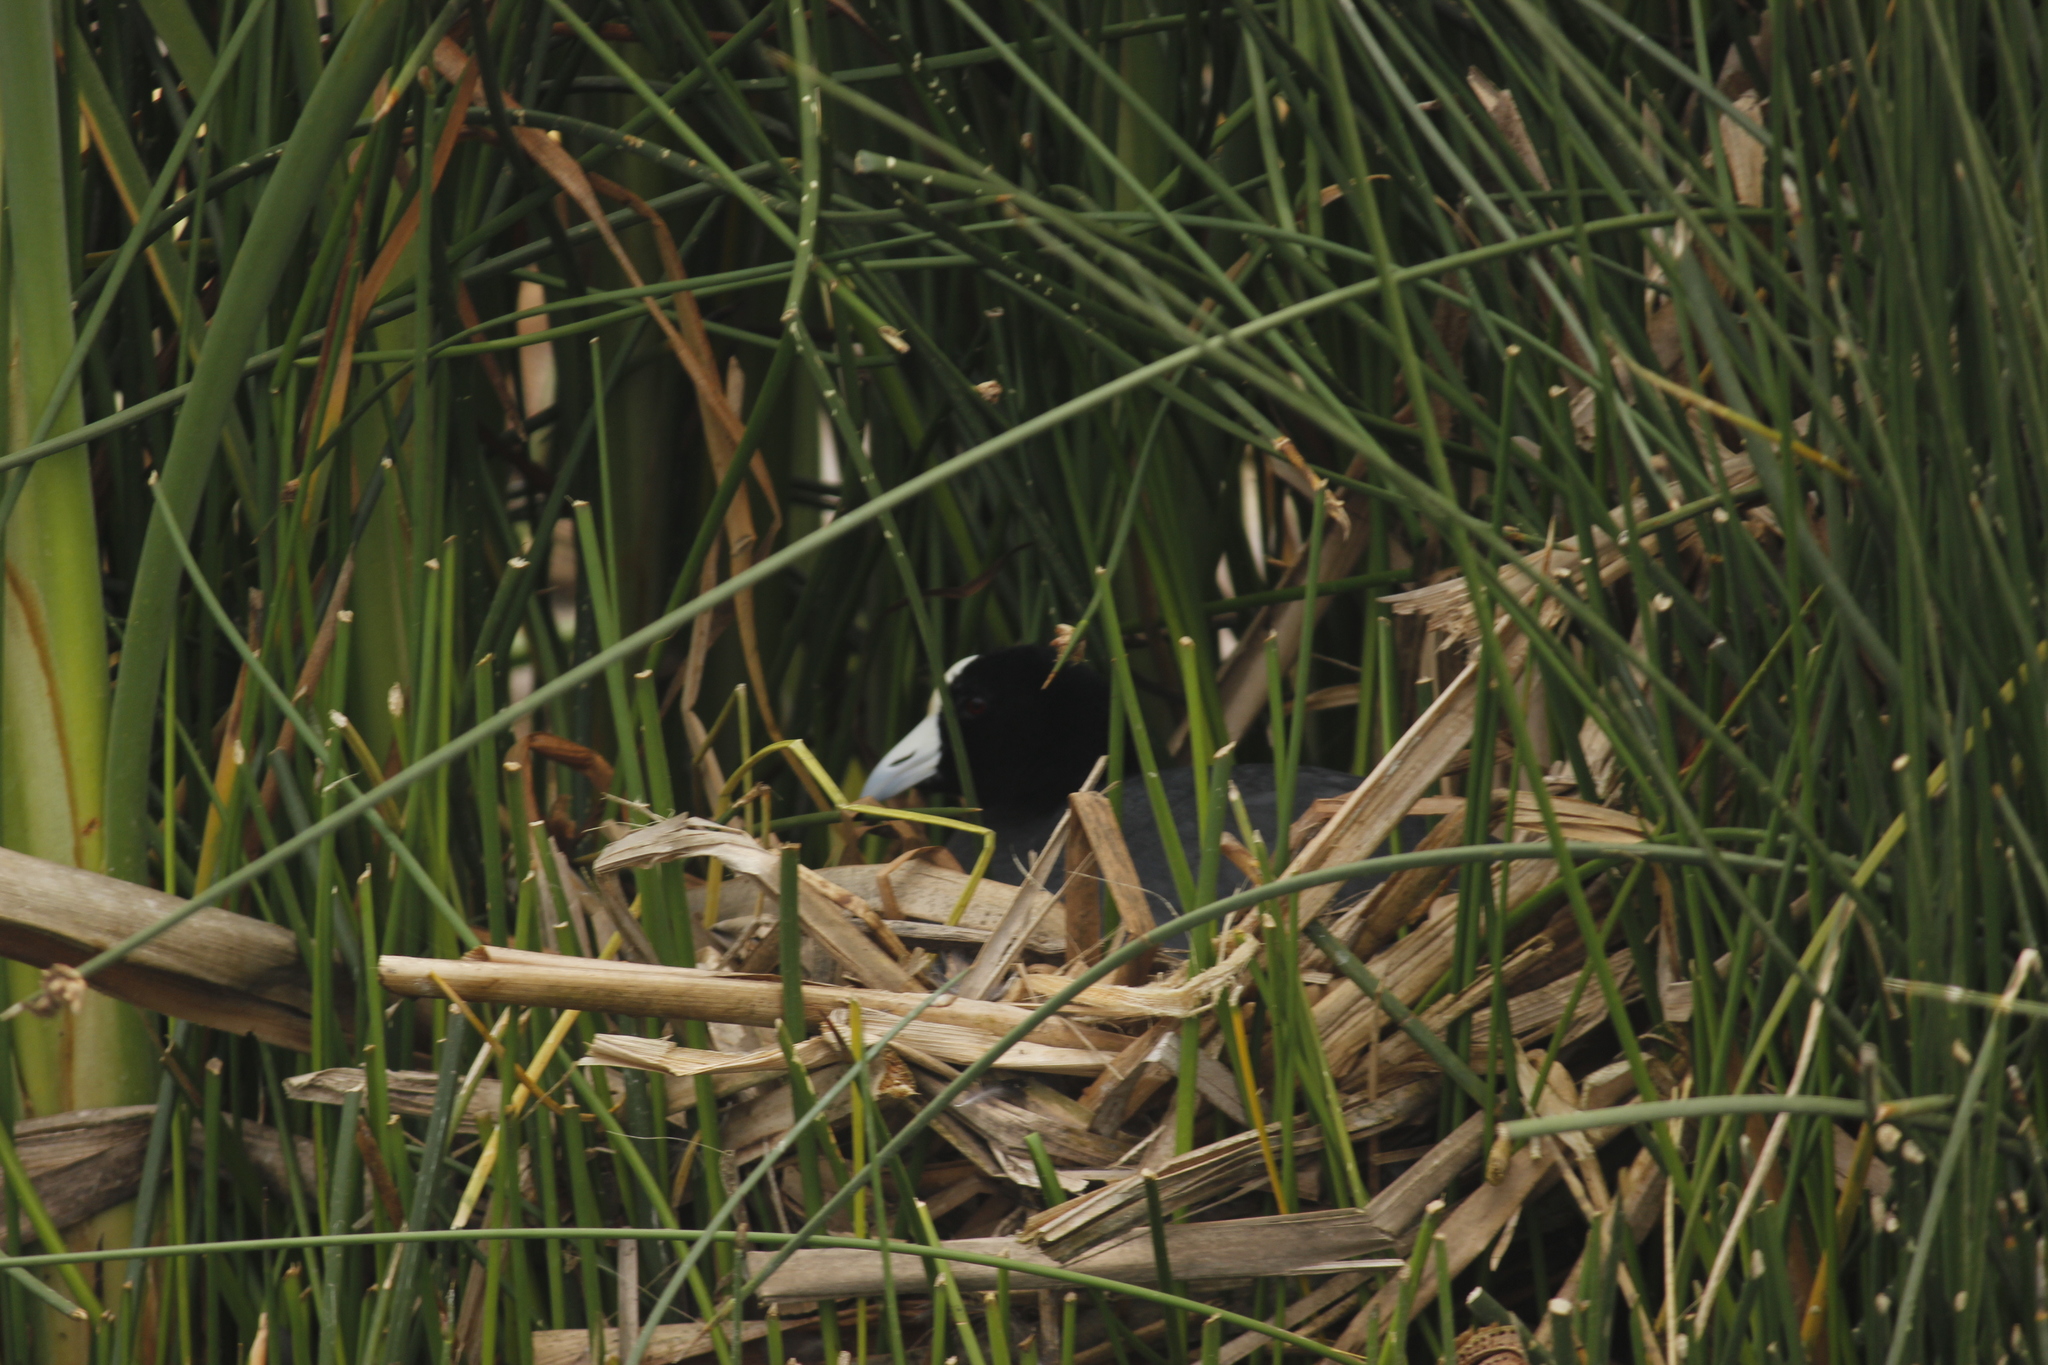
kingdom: Animalia
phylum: Chordata
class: Aves
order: Gruiformes
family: Rallidae
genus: Fulica
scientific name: Fulica ardesiaca
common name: Andean coot
